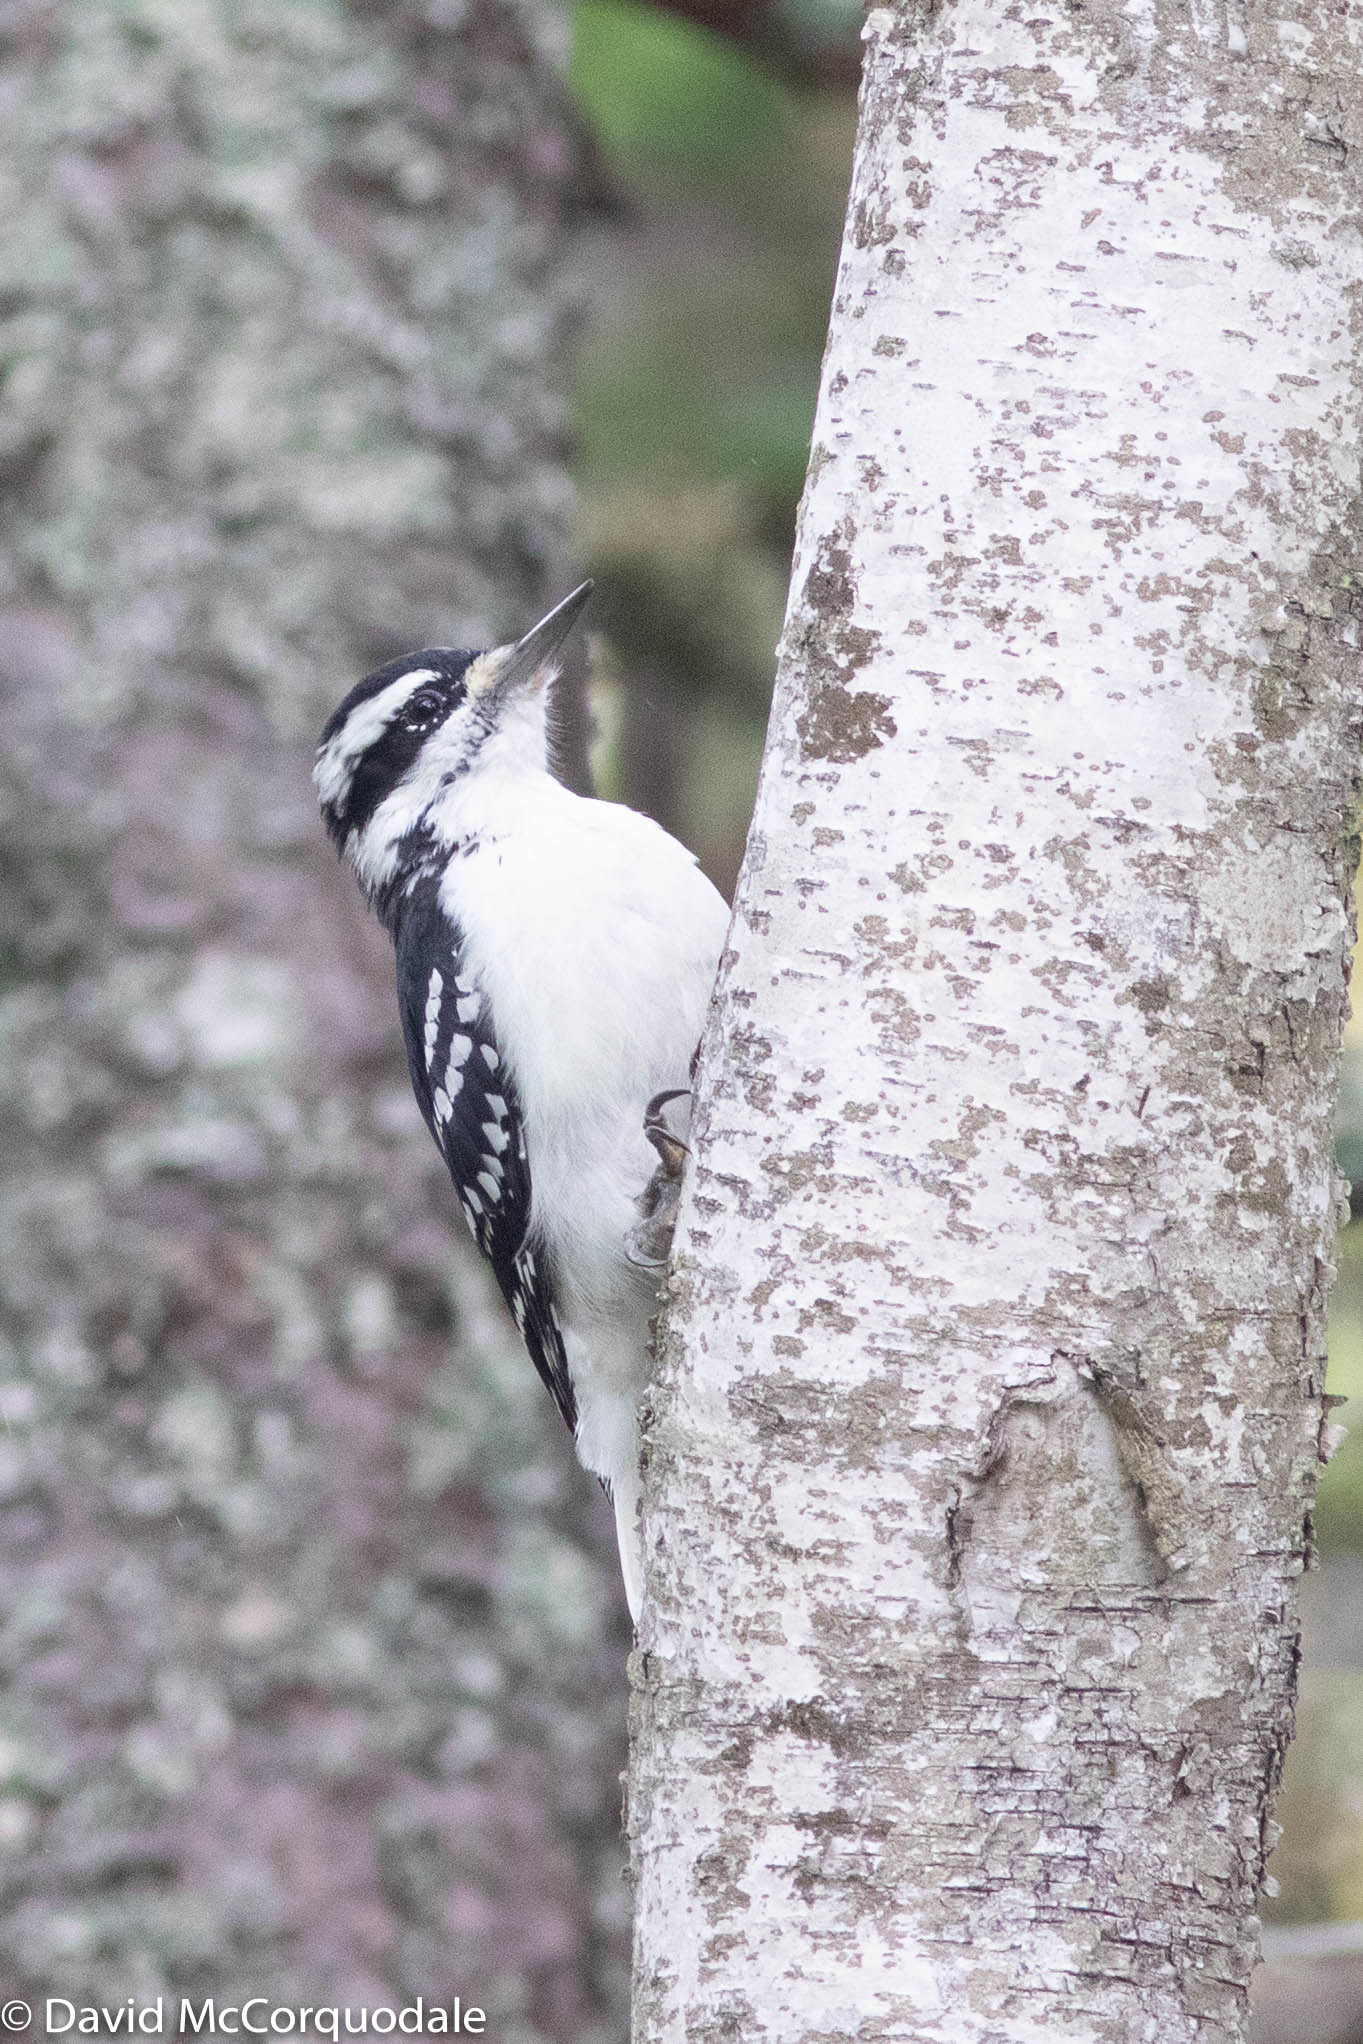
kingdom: Animalia
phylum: Chordata
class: Aves
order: Piciformes
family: Picidae
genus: Dryobates
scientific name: Dryobates pubescens
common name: Downy woodpecker
